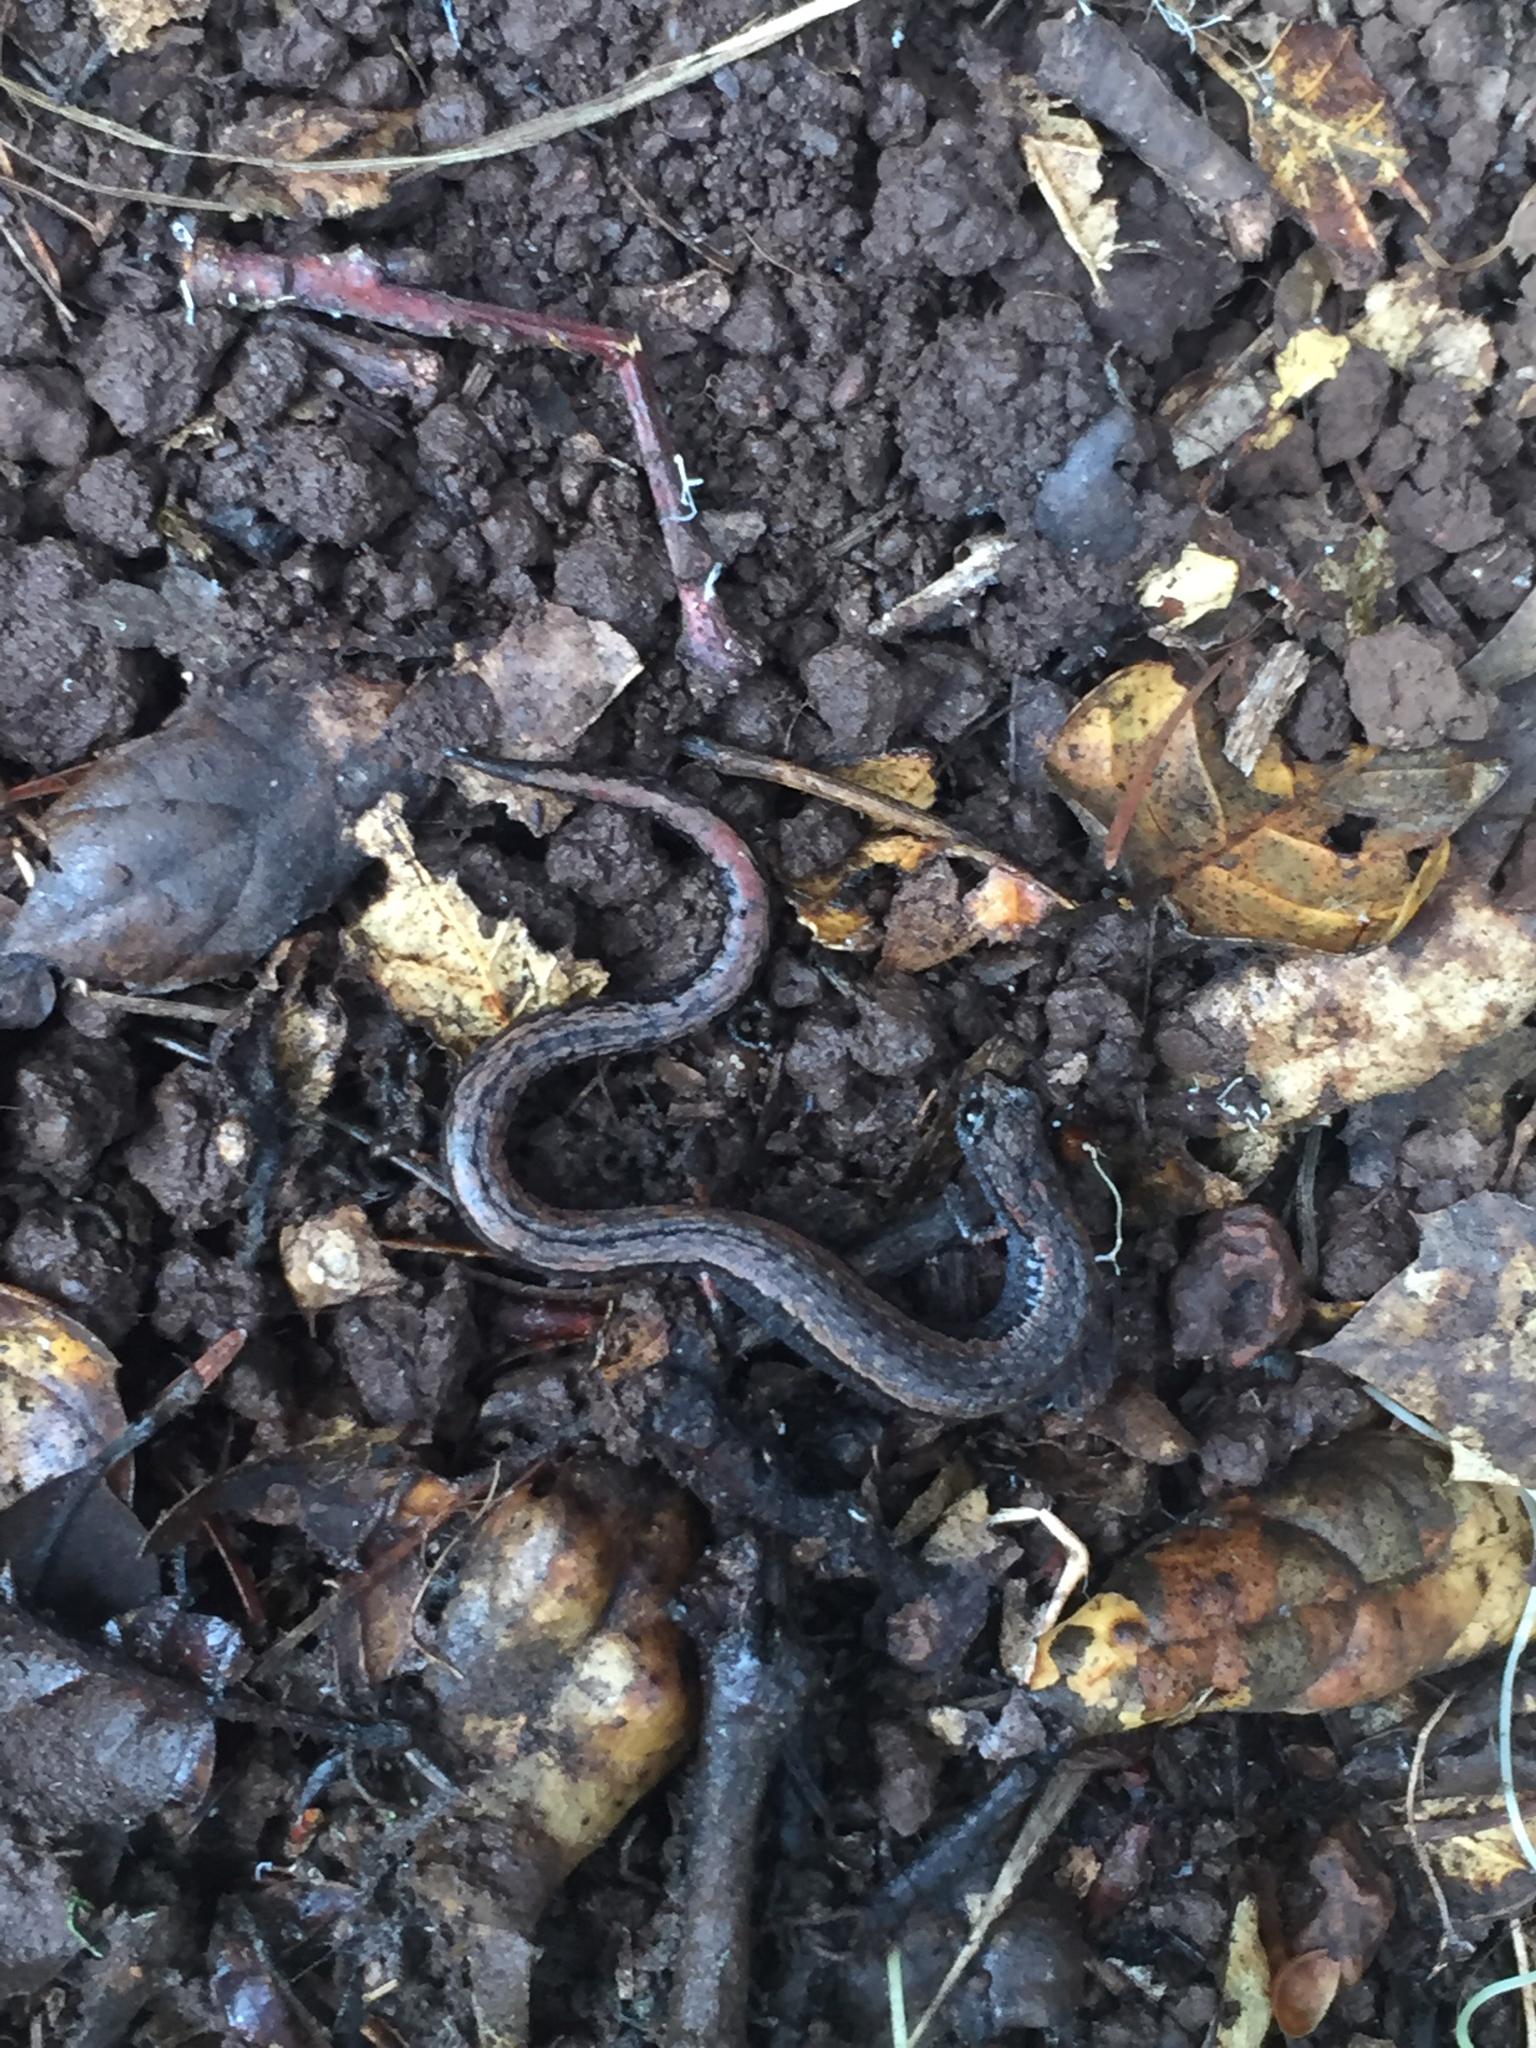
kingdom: Animalia
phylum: Chordata
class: Amphibia
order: Caudata
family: Plethodontidae
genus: Batrachoseps
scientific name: Batrachoseps attenuatus
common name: California slender salamander
